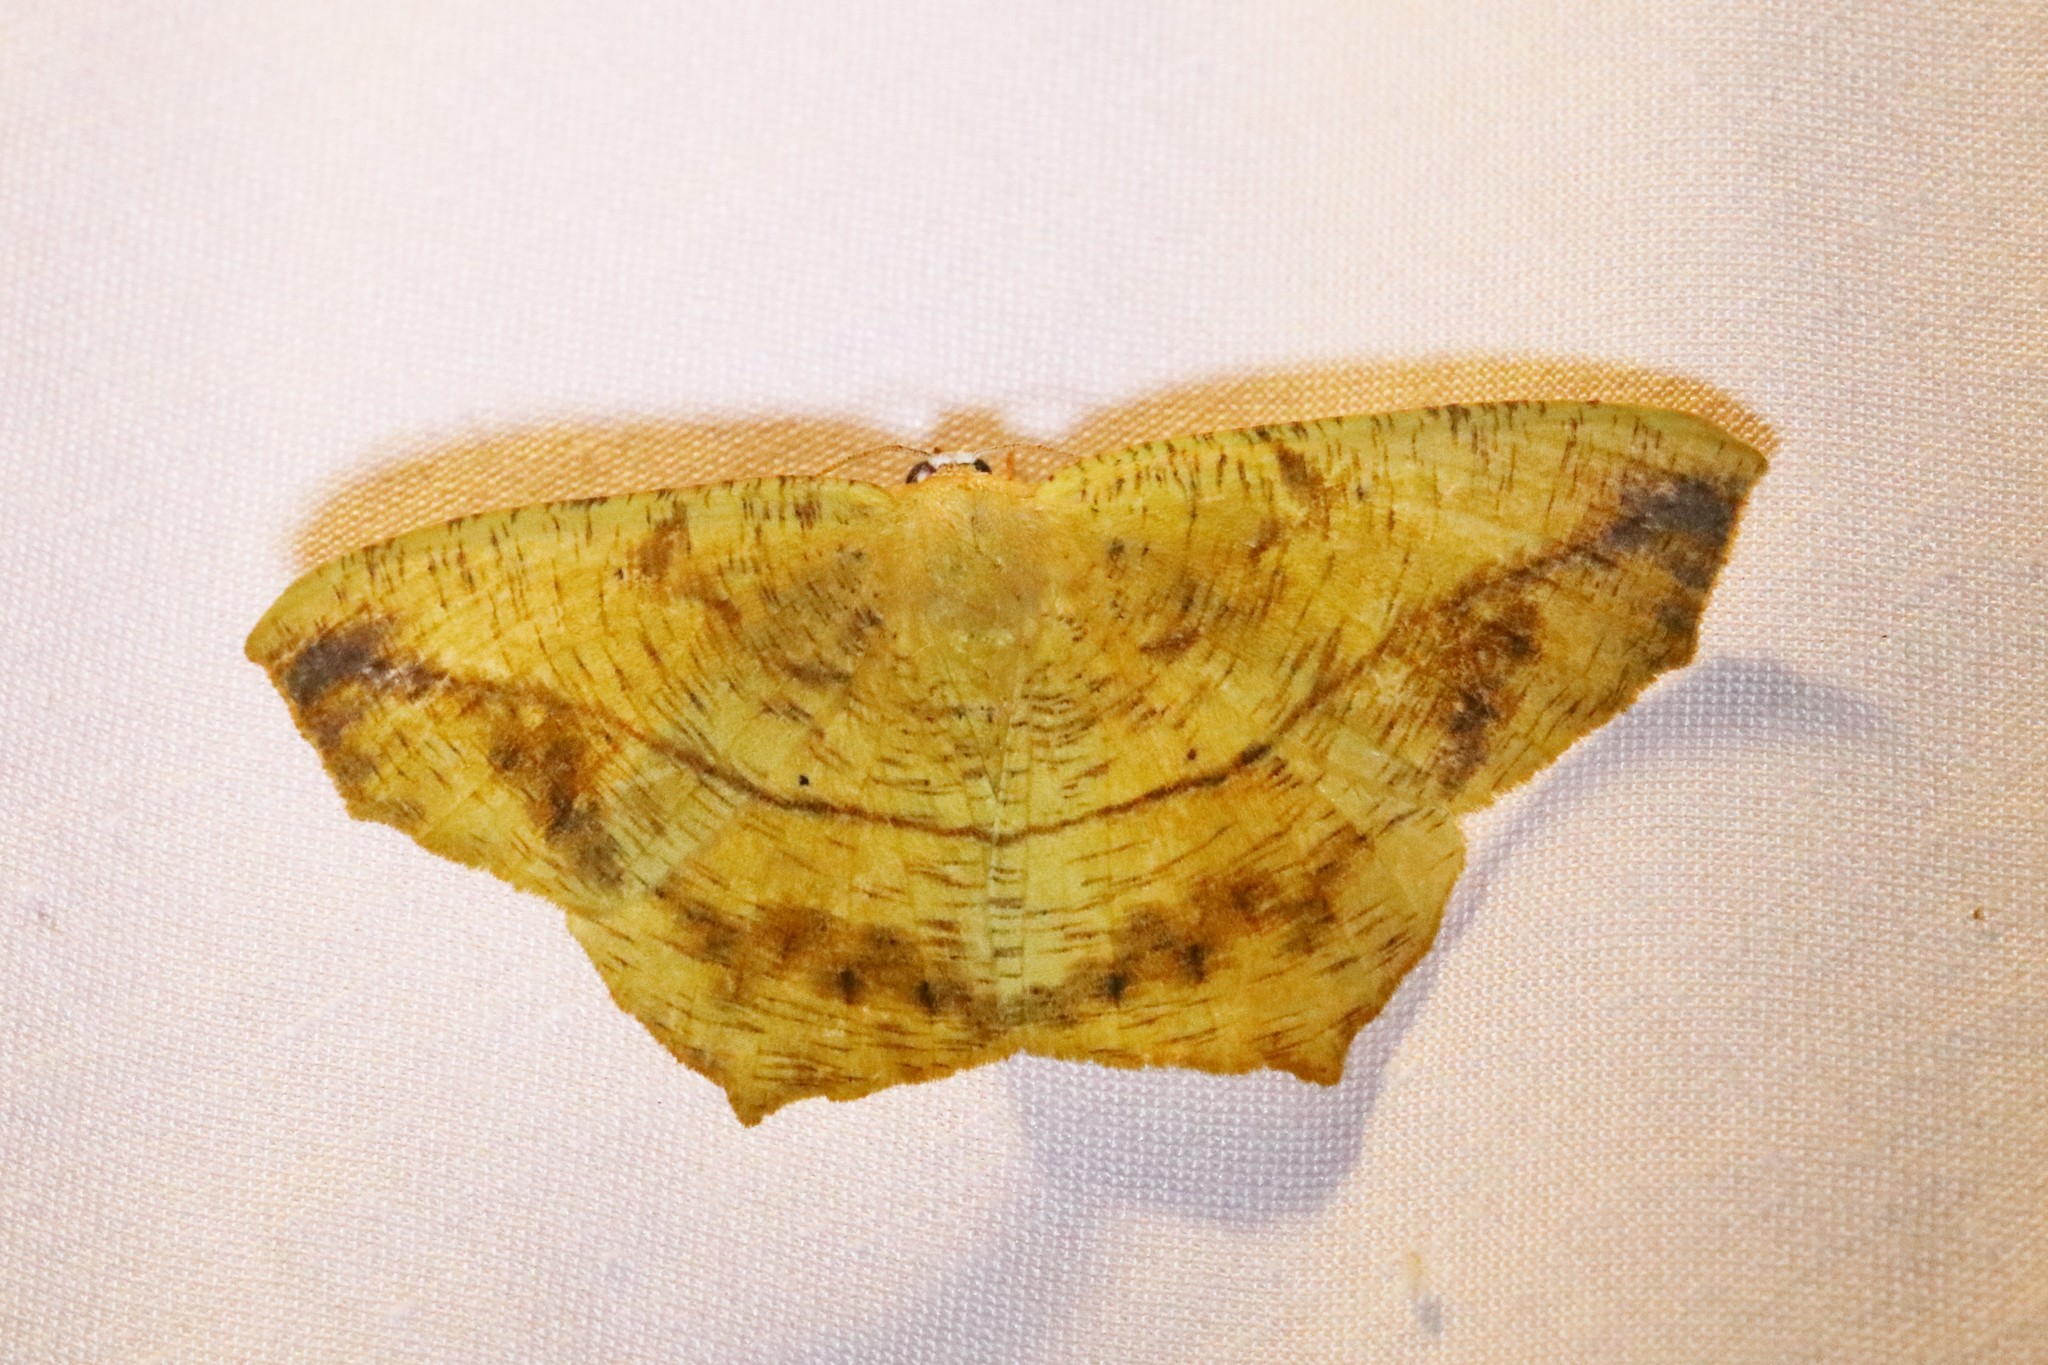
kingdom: Animalia
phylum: Arthropoda
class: Insecta
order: Lepidoptera
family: Geometridae
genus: Prochoerodes
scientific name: Prochoerodes lineola
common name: Large maple spanworm
